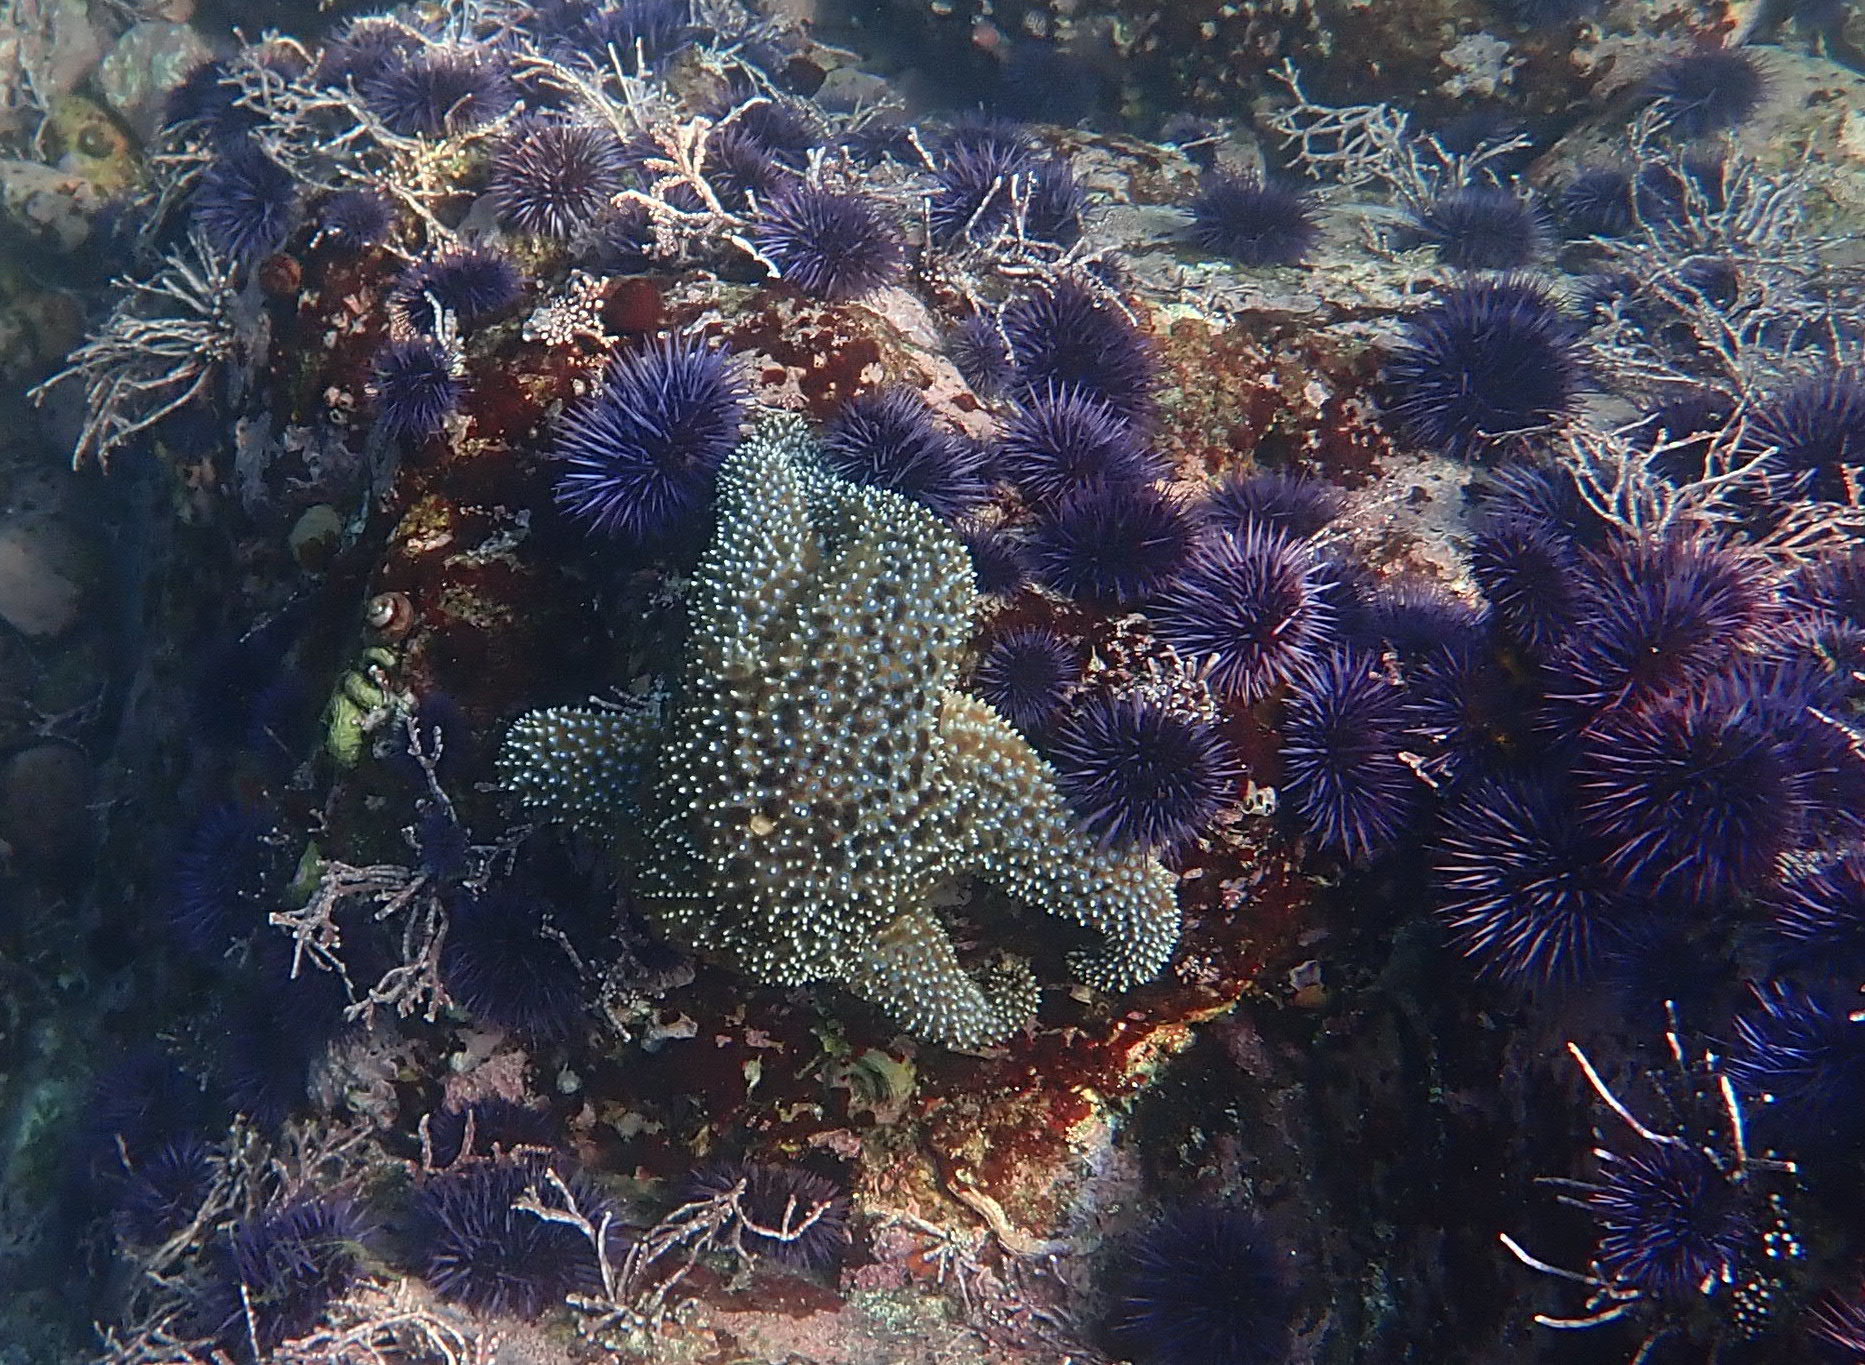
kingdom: Animalia
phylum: Echinodermata
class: Asteroidea
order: Forcipulatida
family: Asteriidae
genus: Pisaster
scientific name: Pisaster giganteus
